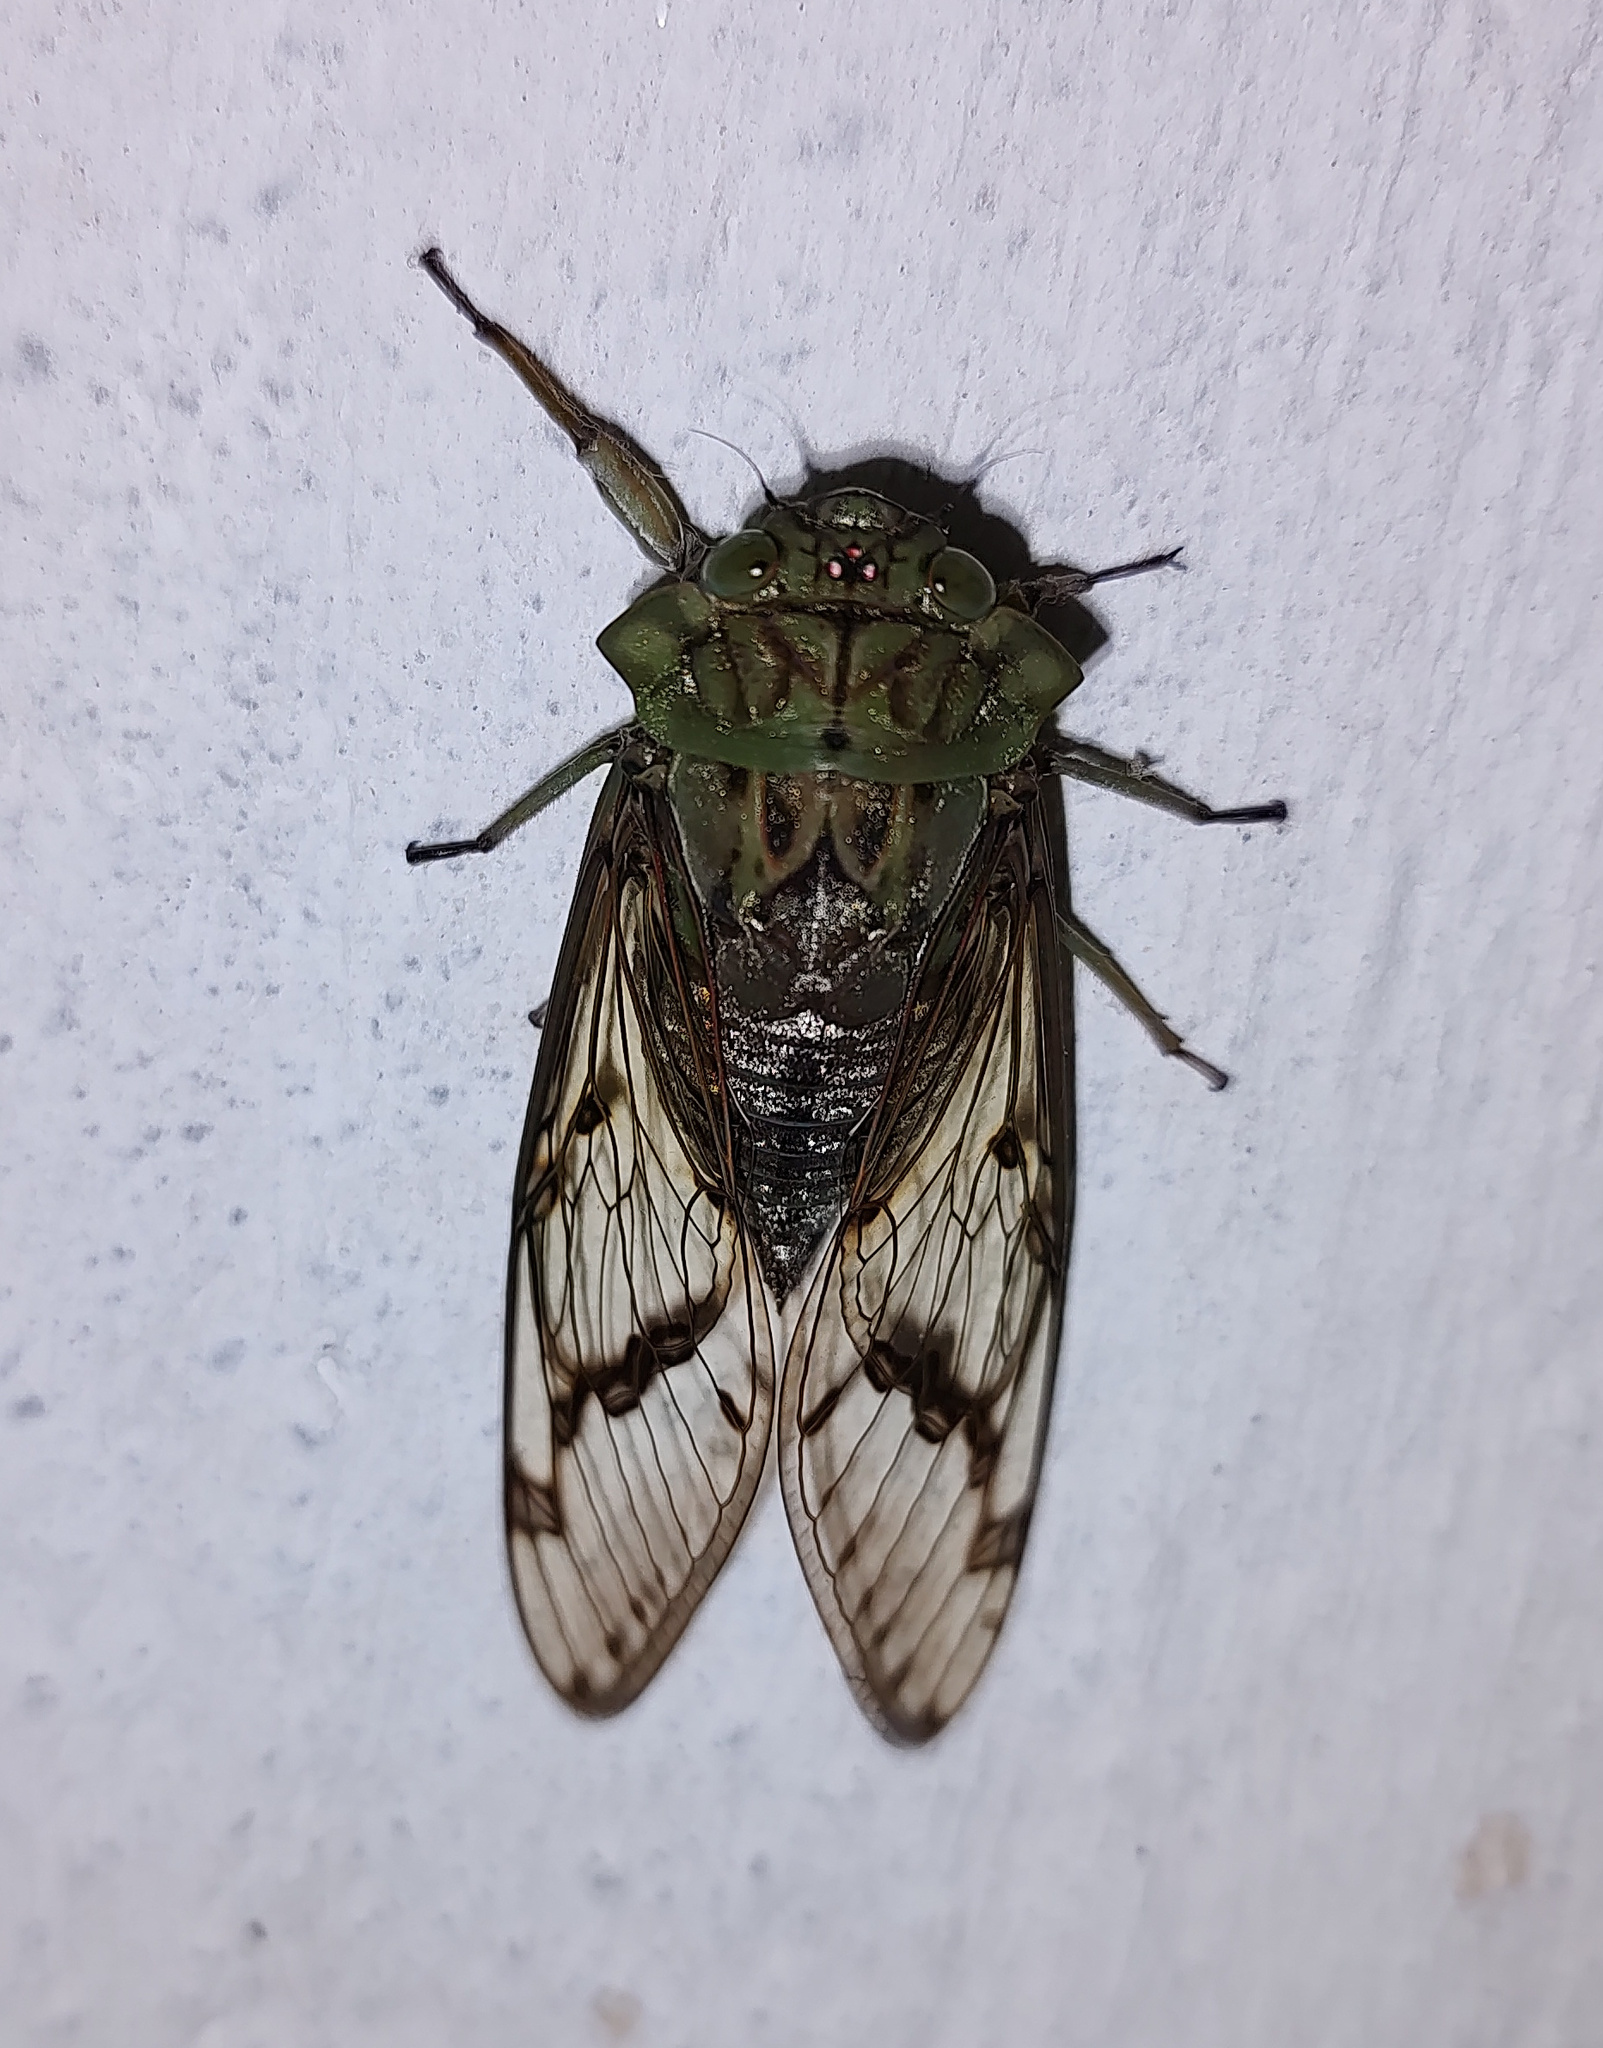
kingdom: Animalia
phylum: Arthropoda
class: Insecta
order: Hemiptera
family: Cicadidae
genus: Zammara
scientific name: Zammara tympanum
